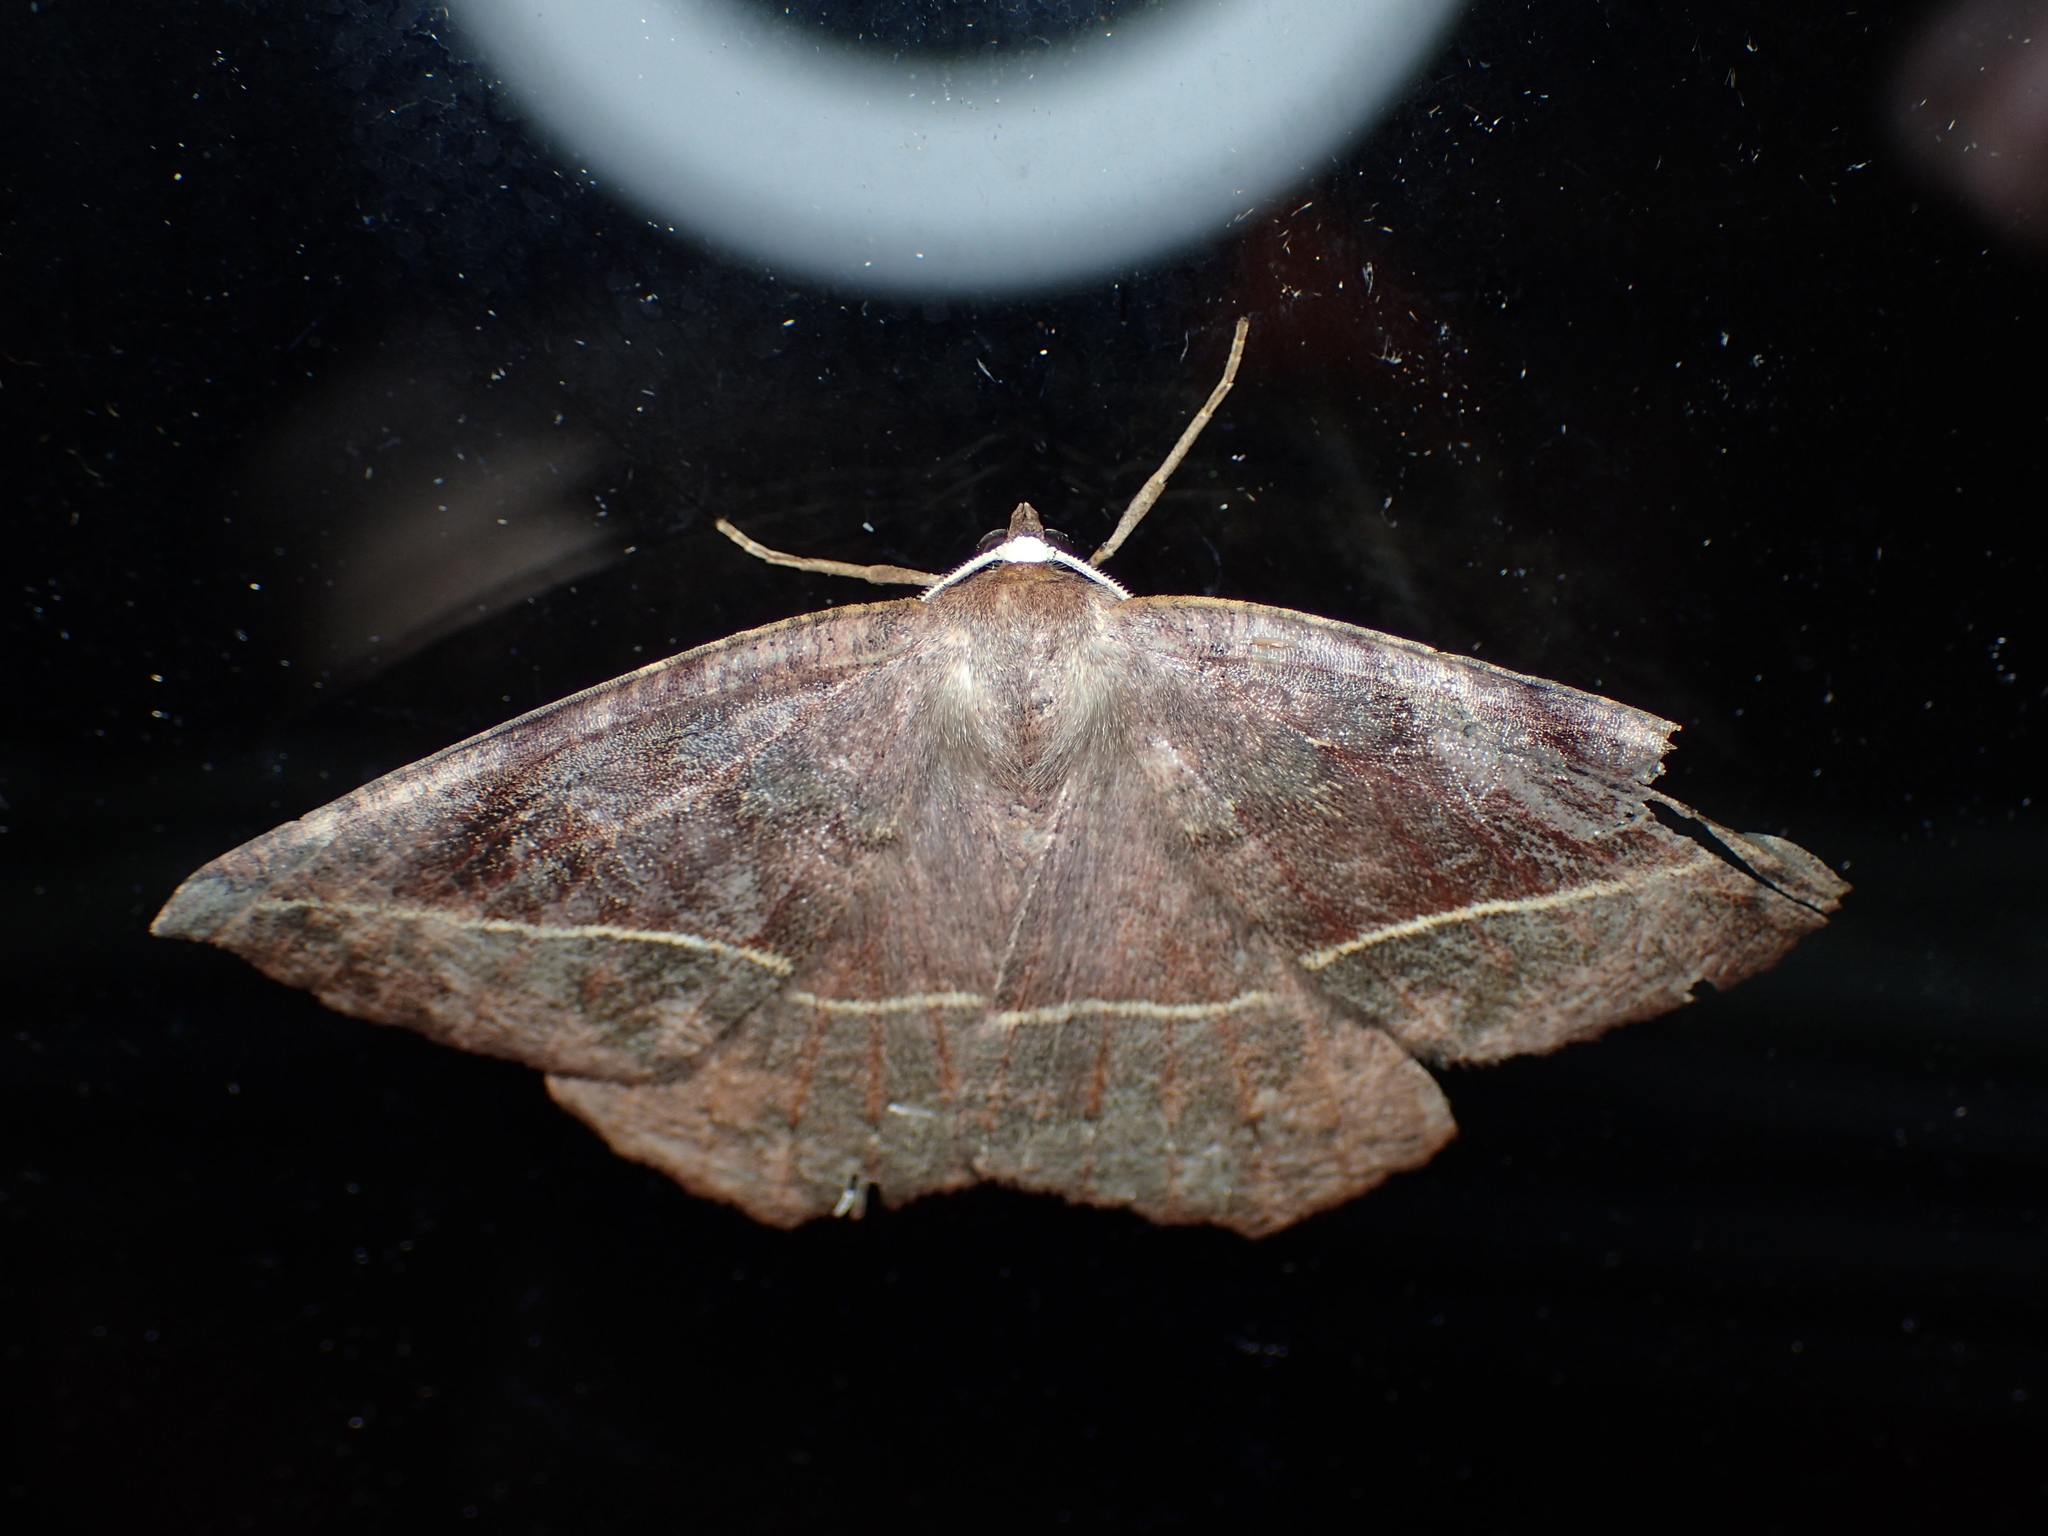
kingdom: Animalia
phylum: Arthropoda
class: Insecta
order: Lepidoptera
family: Geometridae
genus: Eutrapela
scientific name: Eutrapela clemataria
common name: Curved-toothed geometer
